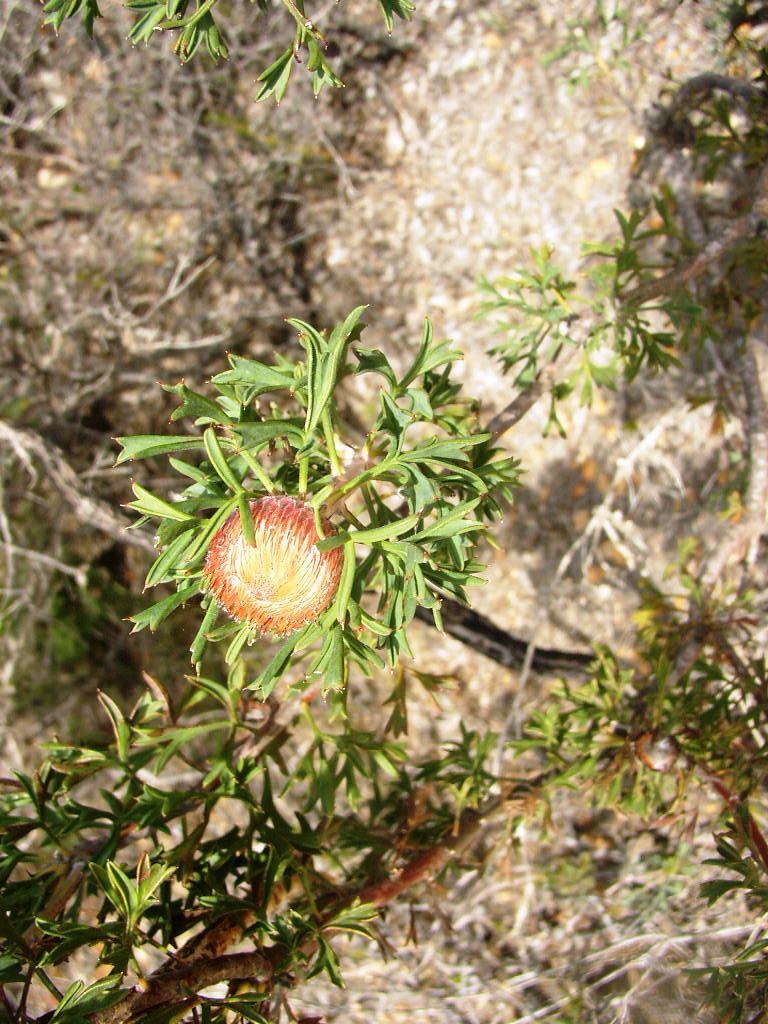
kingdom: Plantae
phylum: Tracheophyta
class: Magnoliopsida
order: Proteales
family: Proteaceae
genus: Isopogon
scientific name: Isopogon dubius
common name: Pincushion-coneflower
